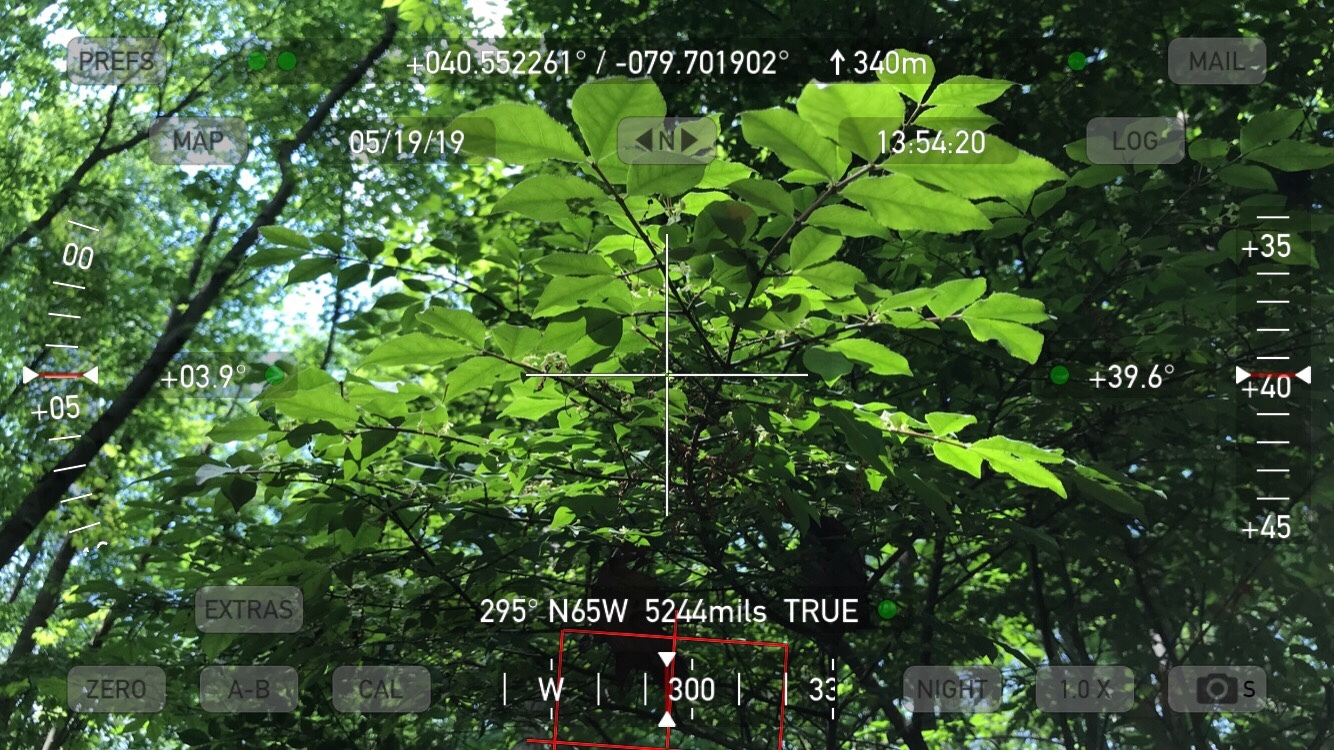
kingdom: Plantae
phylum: Tracheophyta
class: Magnoliopsida
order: Celastrales
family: Celastraceae
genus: Euonymus
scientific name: Euonymus alatus
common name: Winged euonymus
